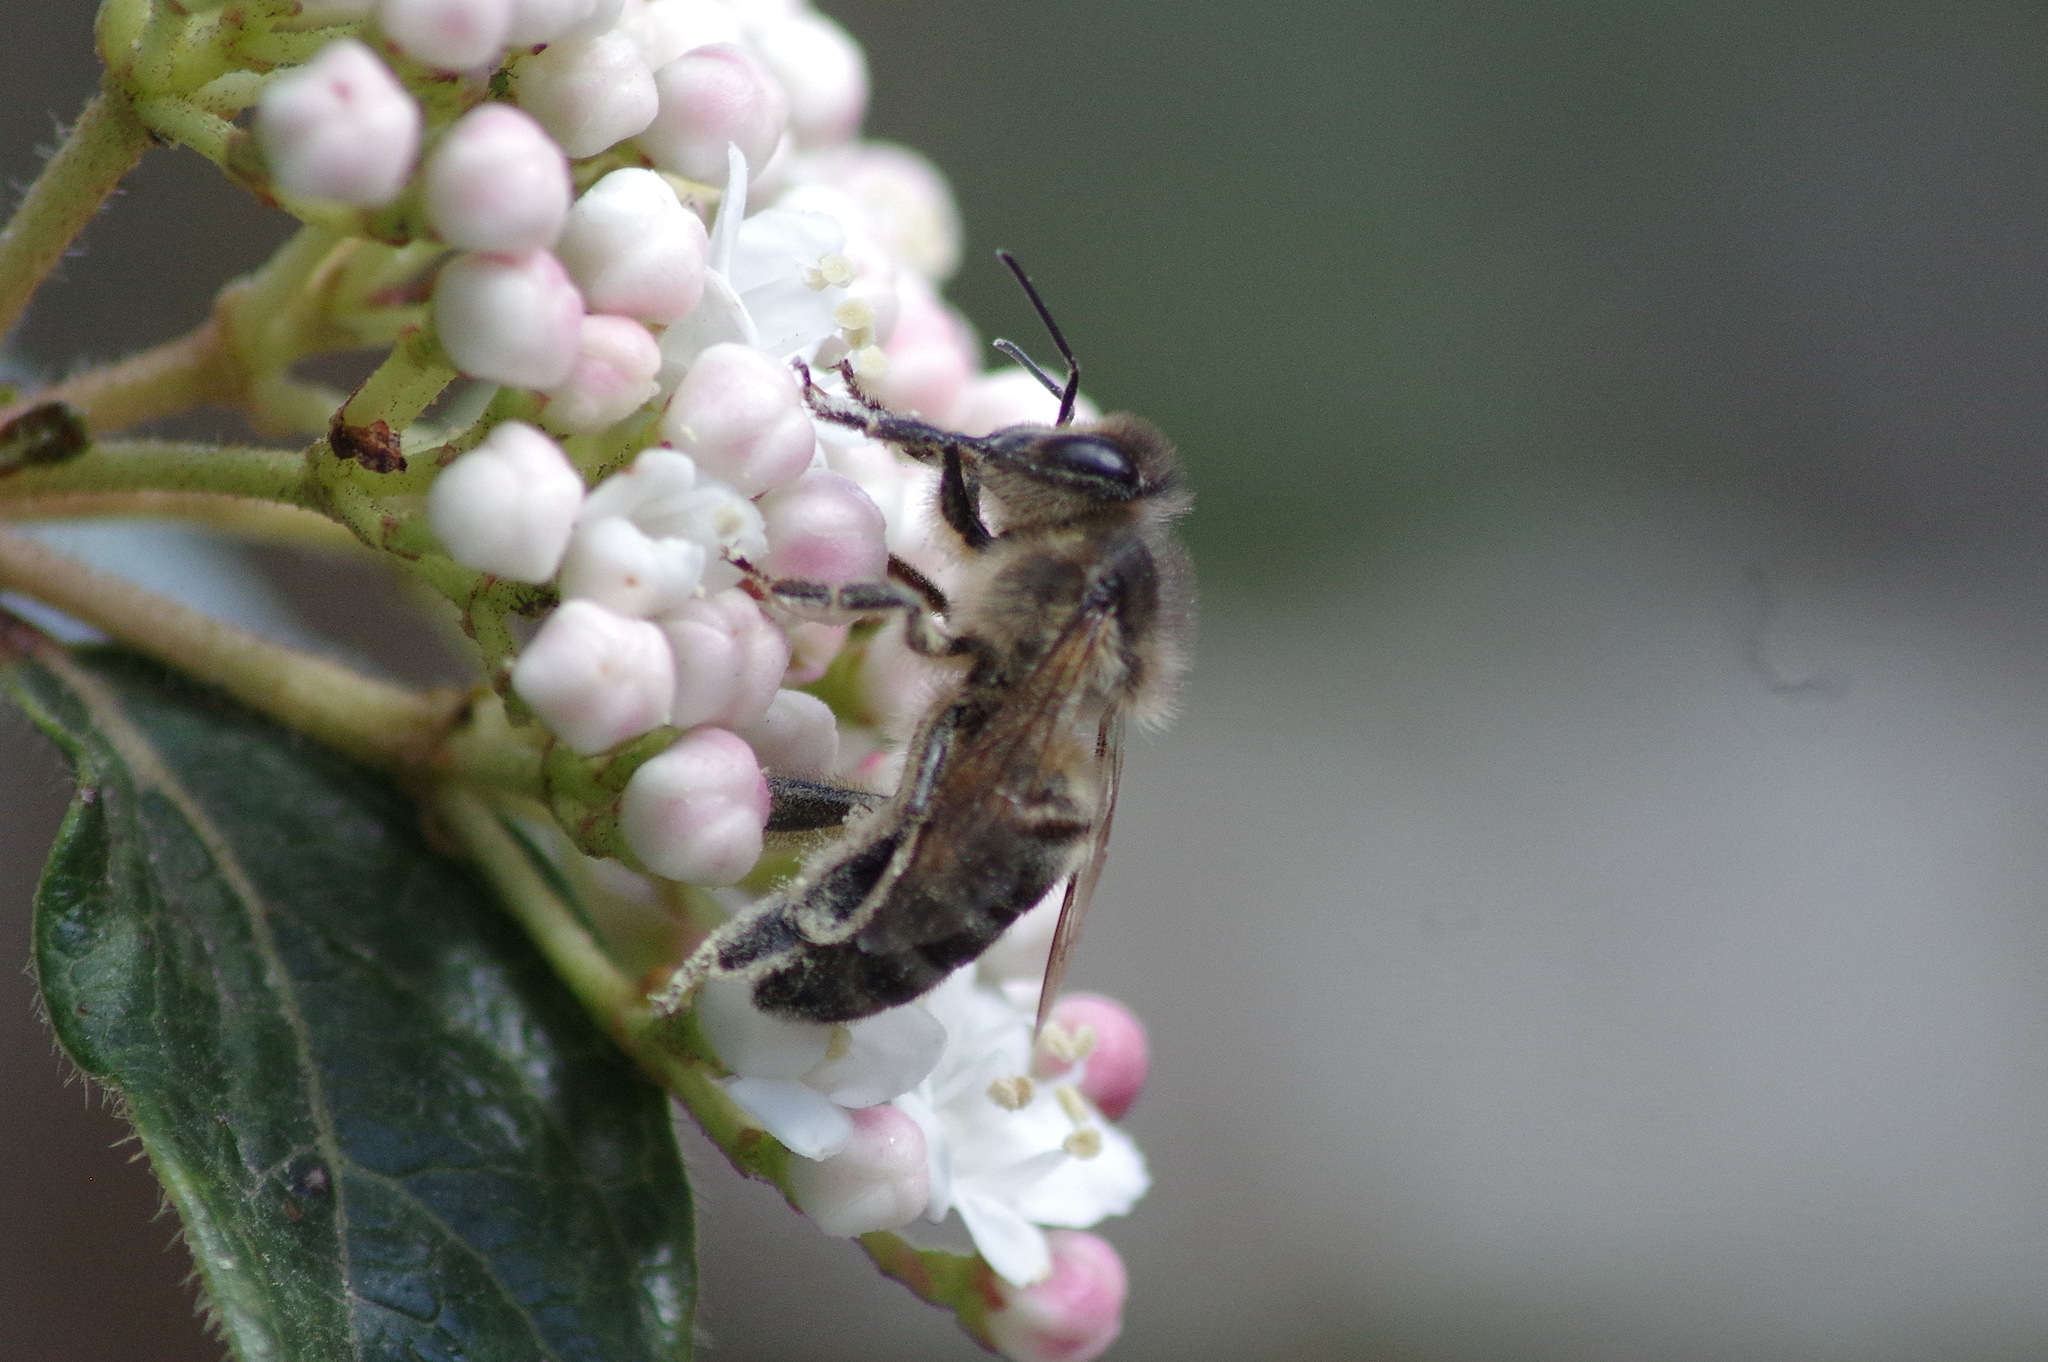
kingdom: Animalia
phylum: Arthropoda
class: Insecta
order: Hymenoptera
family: Apidae
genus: Apis
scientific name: Apis mellifera
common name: Honey bee
